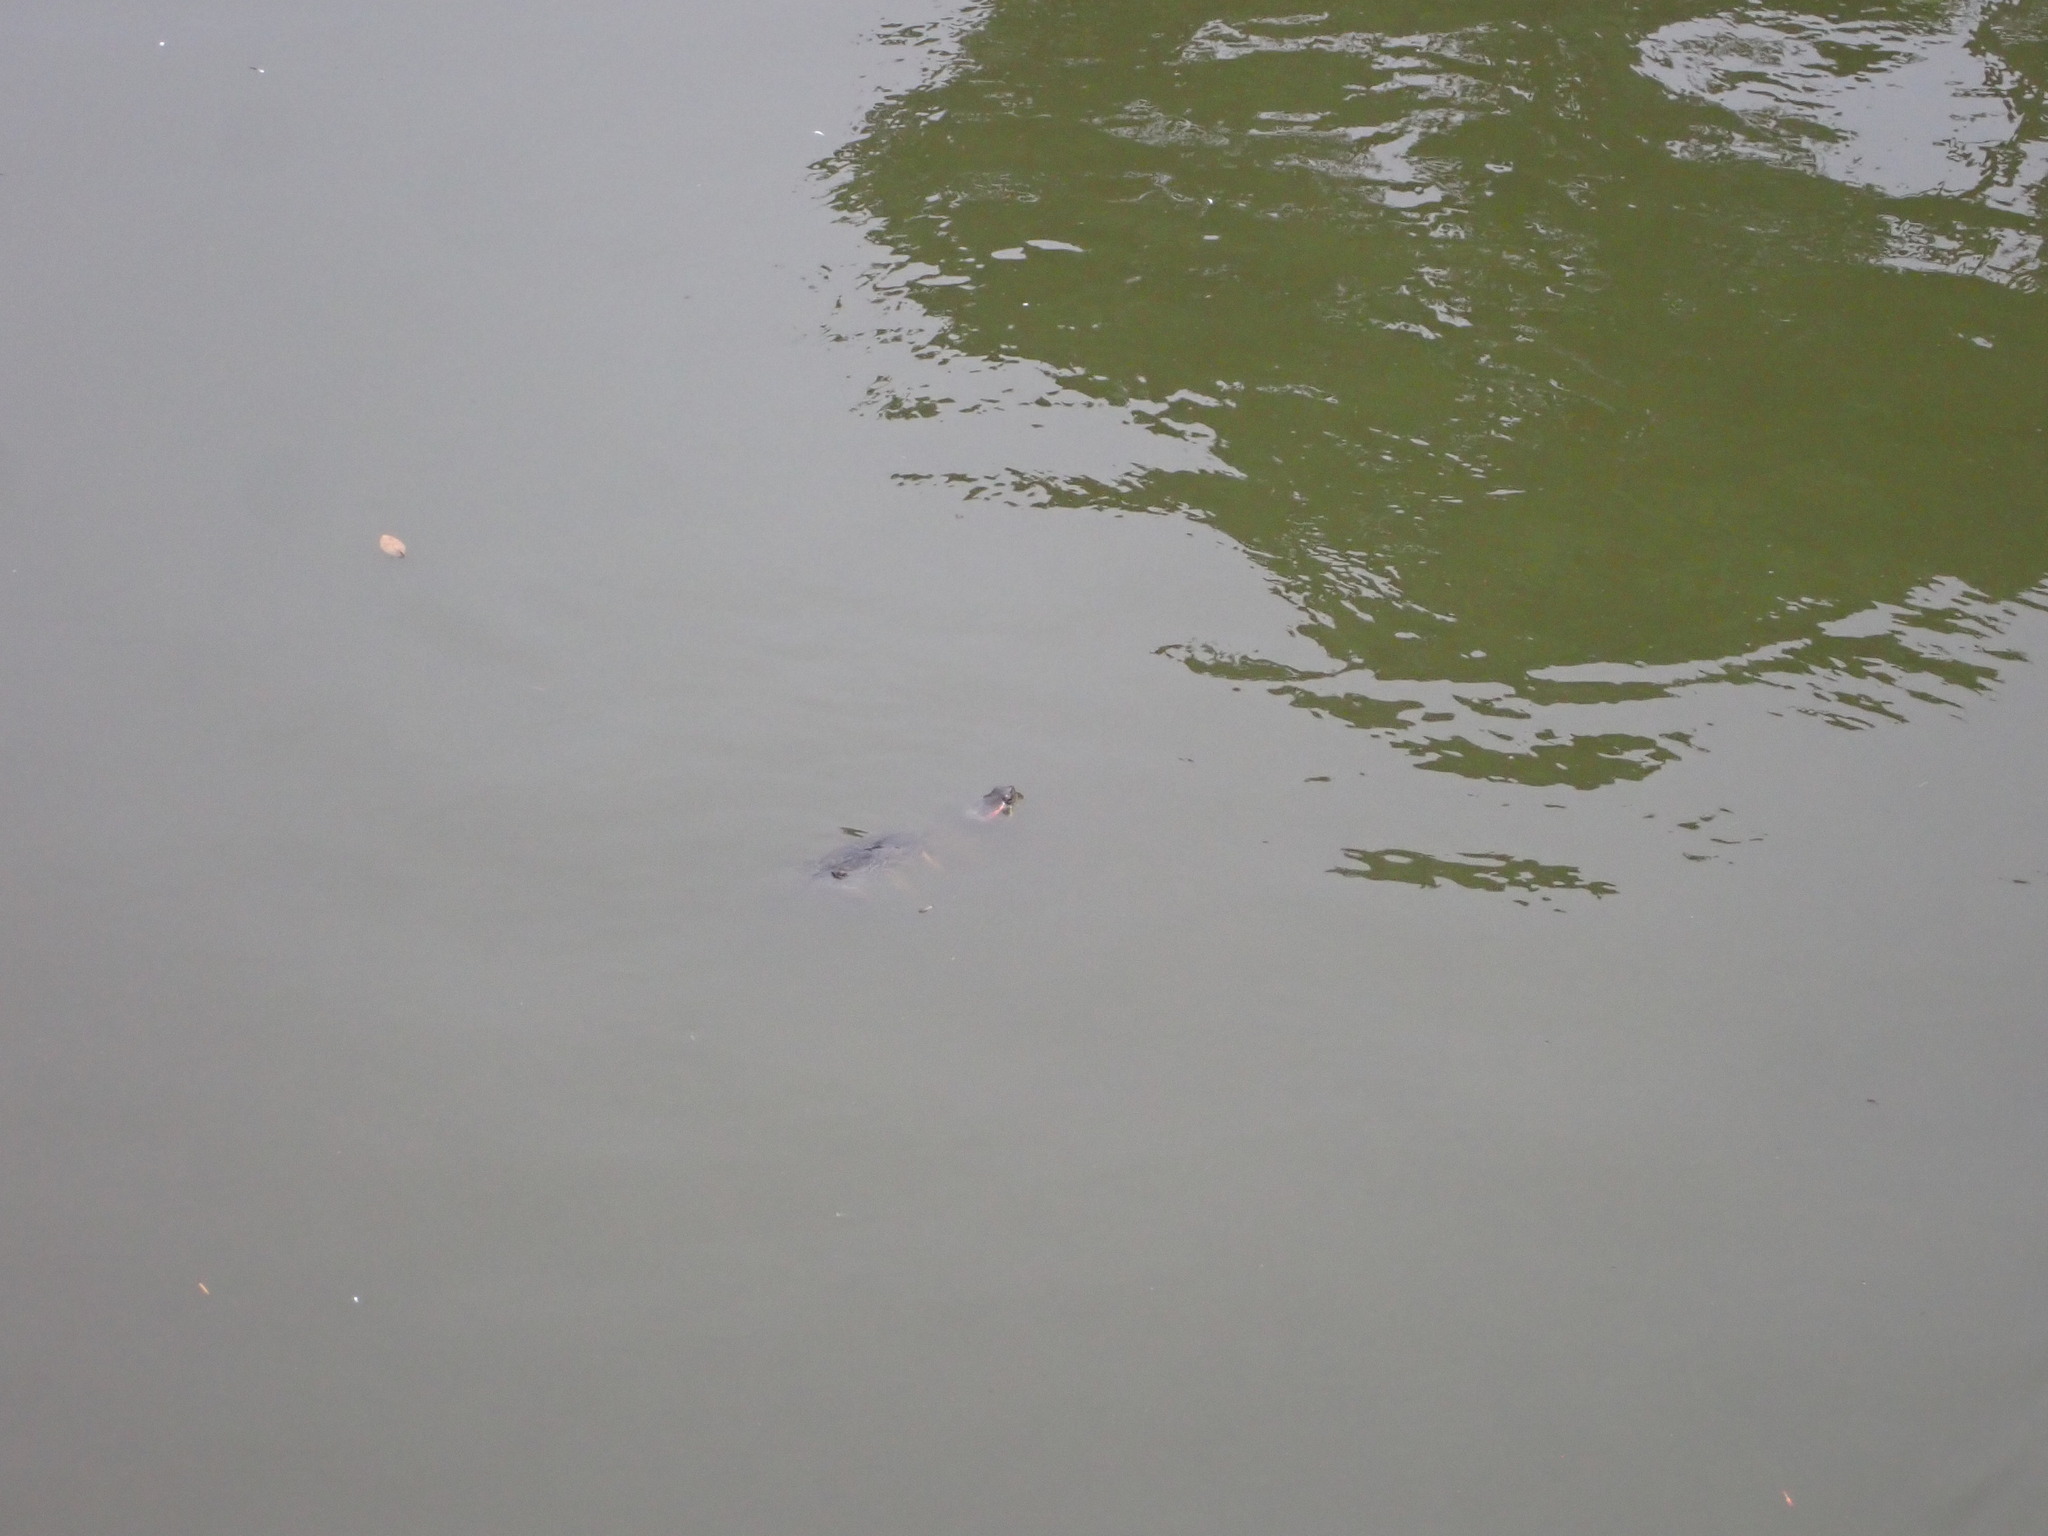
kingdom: Animalia
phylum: Chordata
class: Testudines
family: Emydidae
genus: Trachemys
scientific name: Trachemys scripta
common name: Slider
